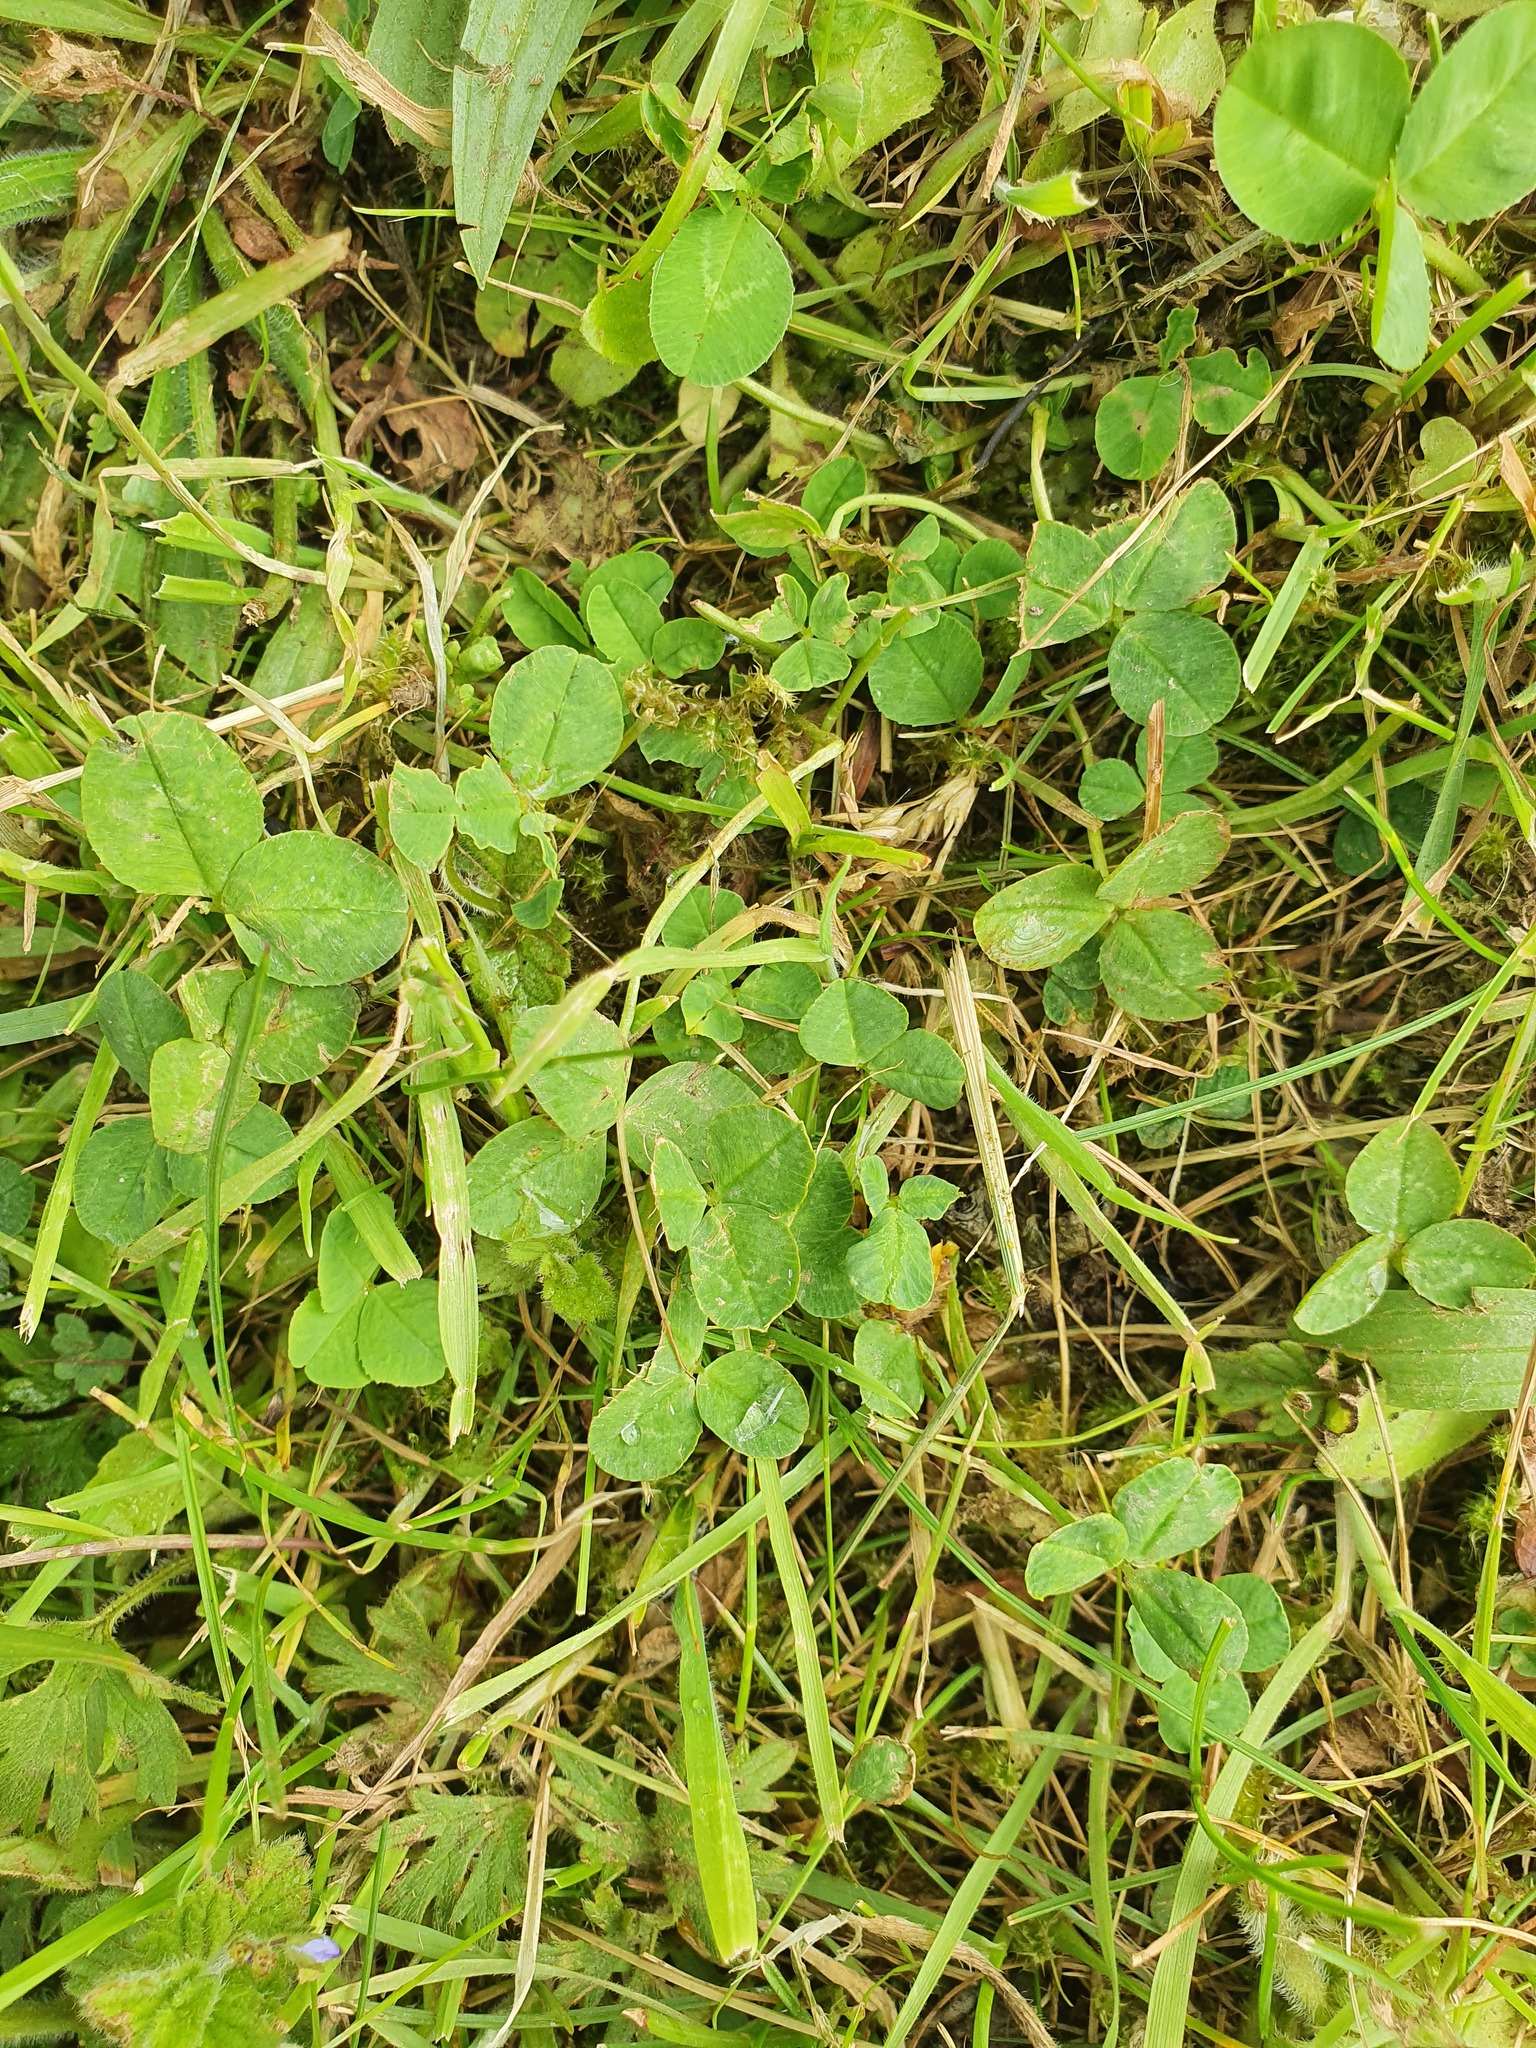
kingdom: Plantae
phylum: Tracheophyta
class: Magnoliopsida
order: Fabales
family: Fabaceae
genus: Trifolium
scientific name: Trifolium repens
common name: White clover
